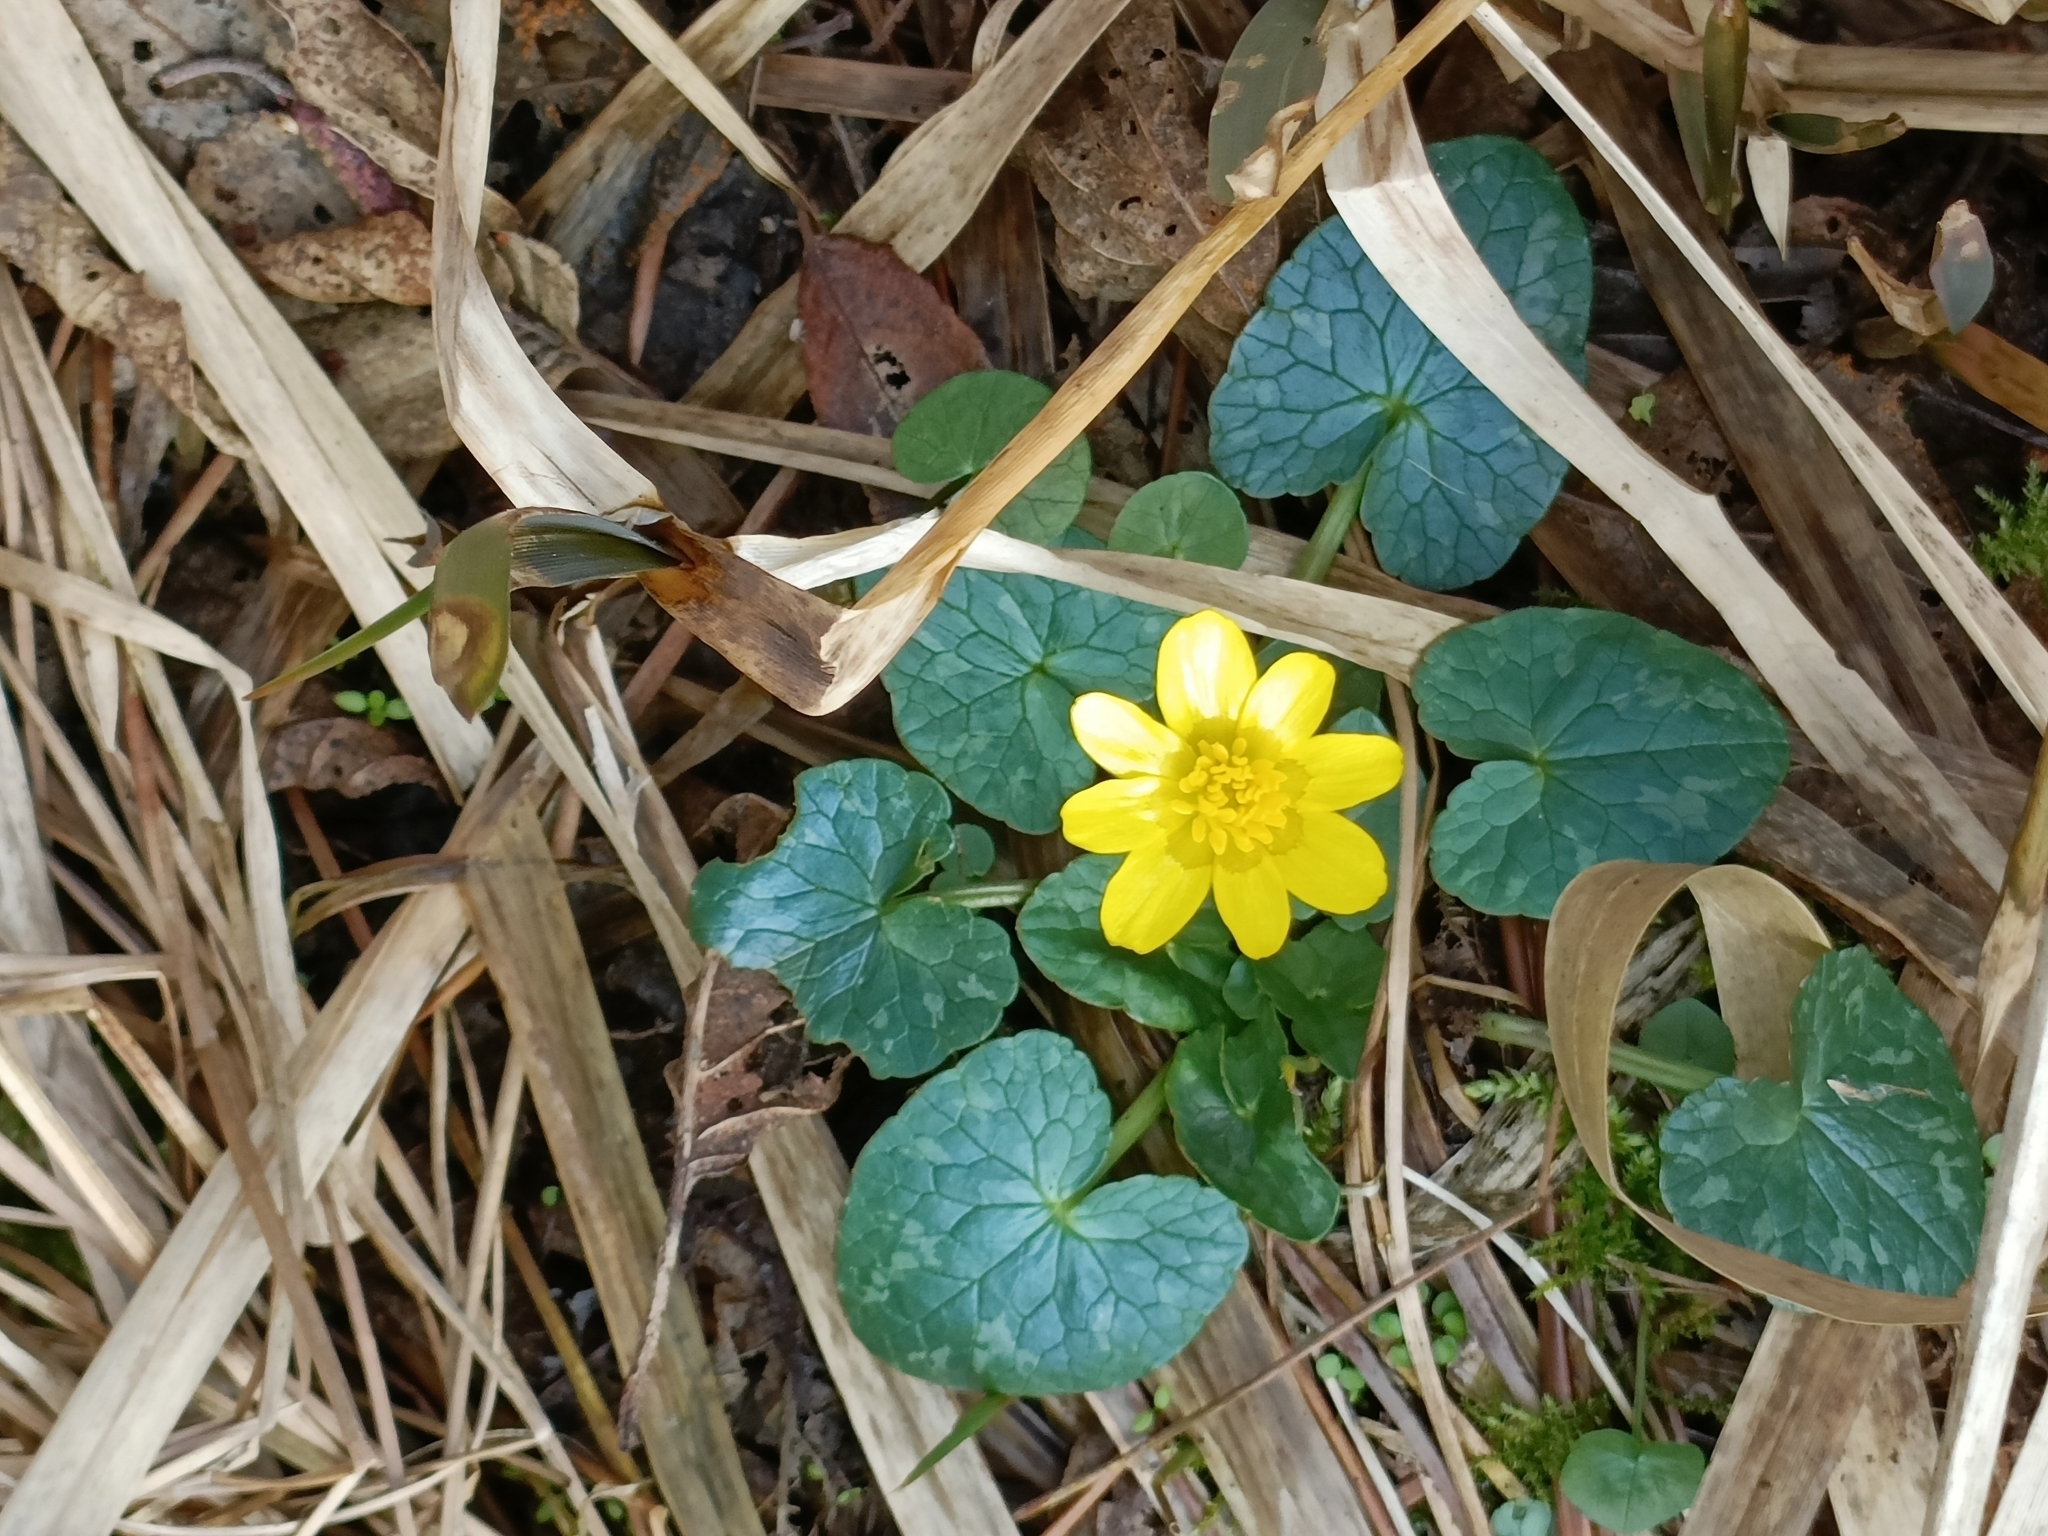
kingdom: Plantae
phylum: Tracheophyta
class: Magnoliopsida
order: Ranunculales
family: Ranunculaceae
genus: Ficaria
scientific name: Ficaria verna
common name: Lesser celandine
